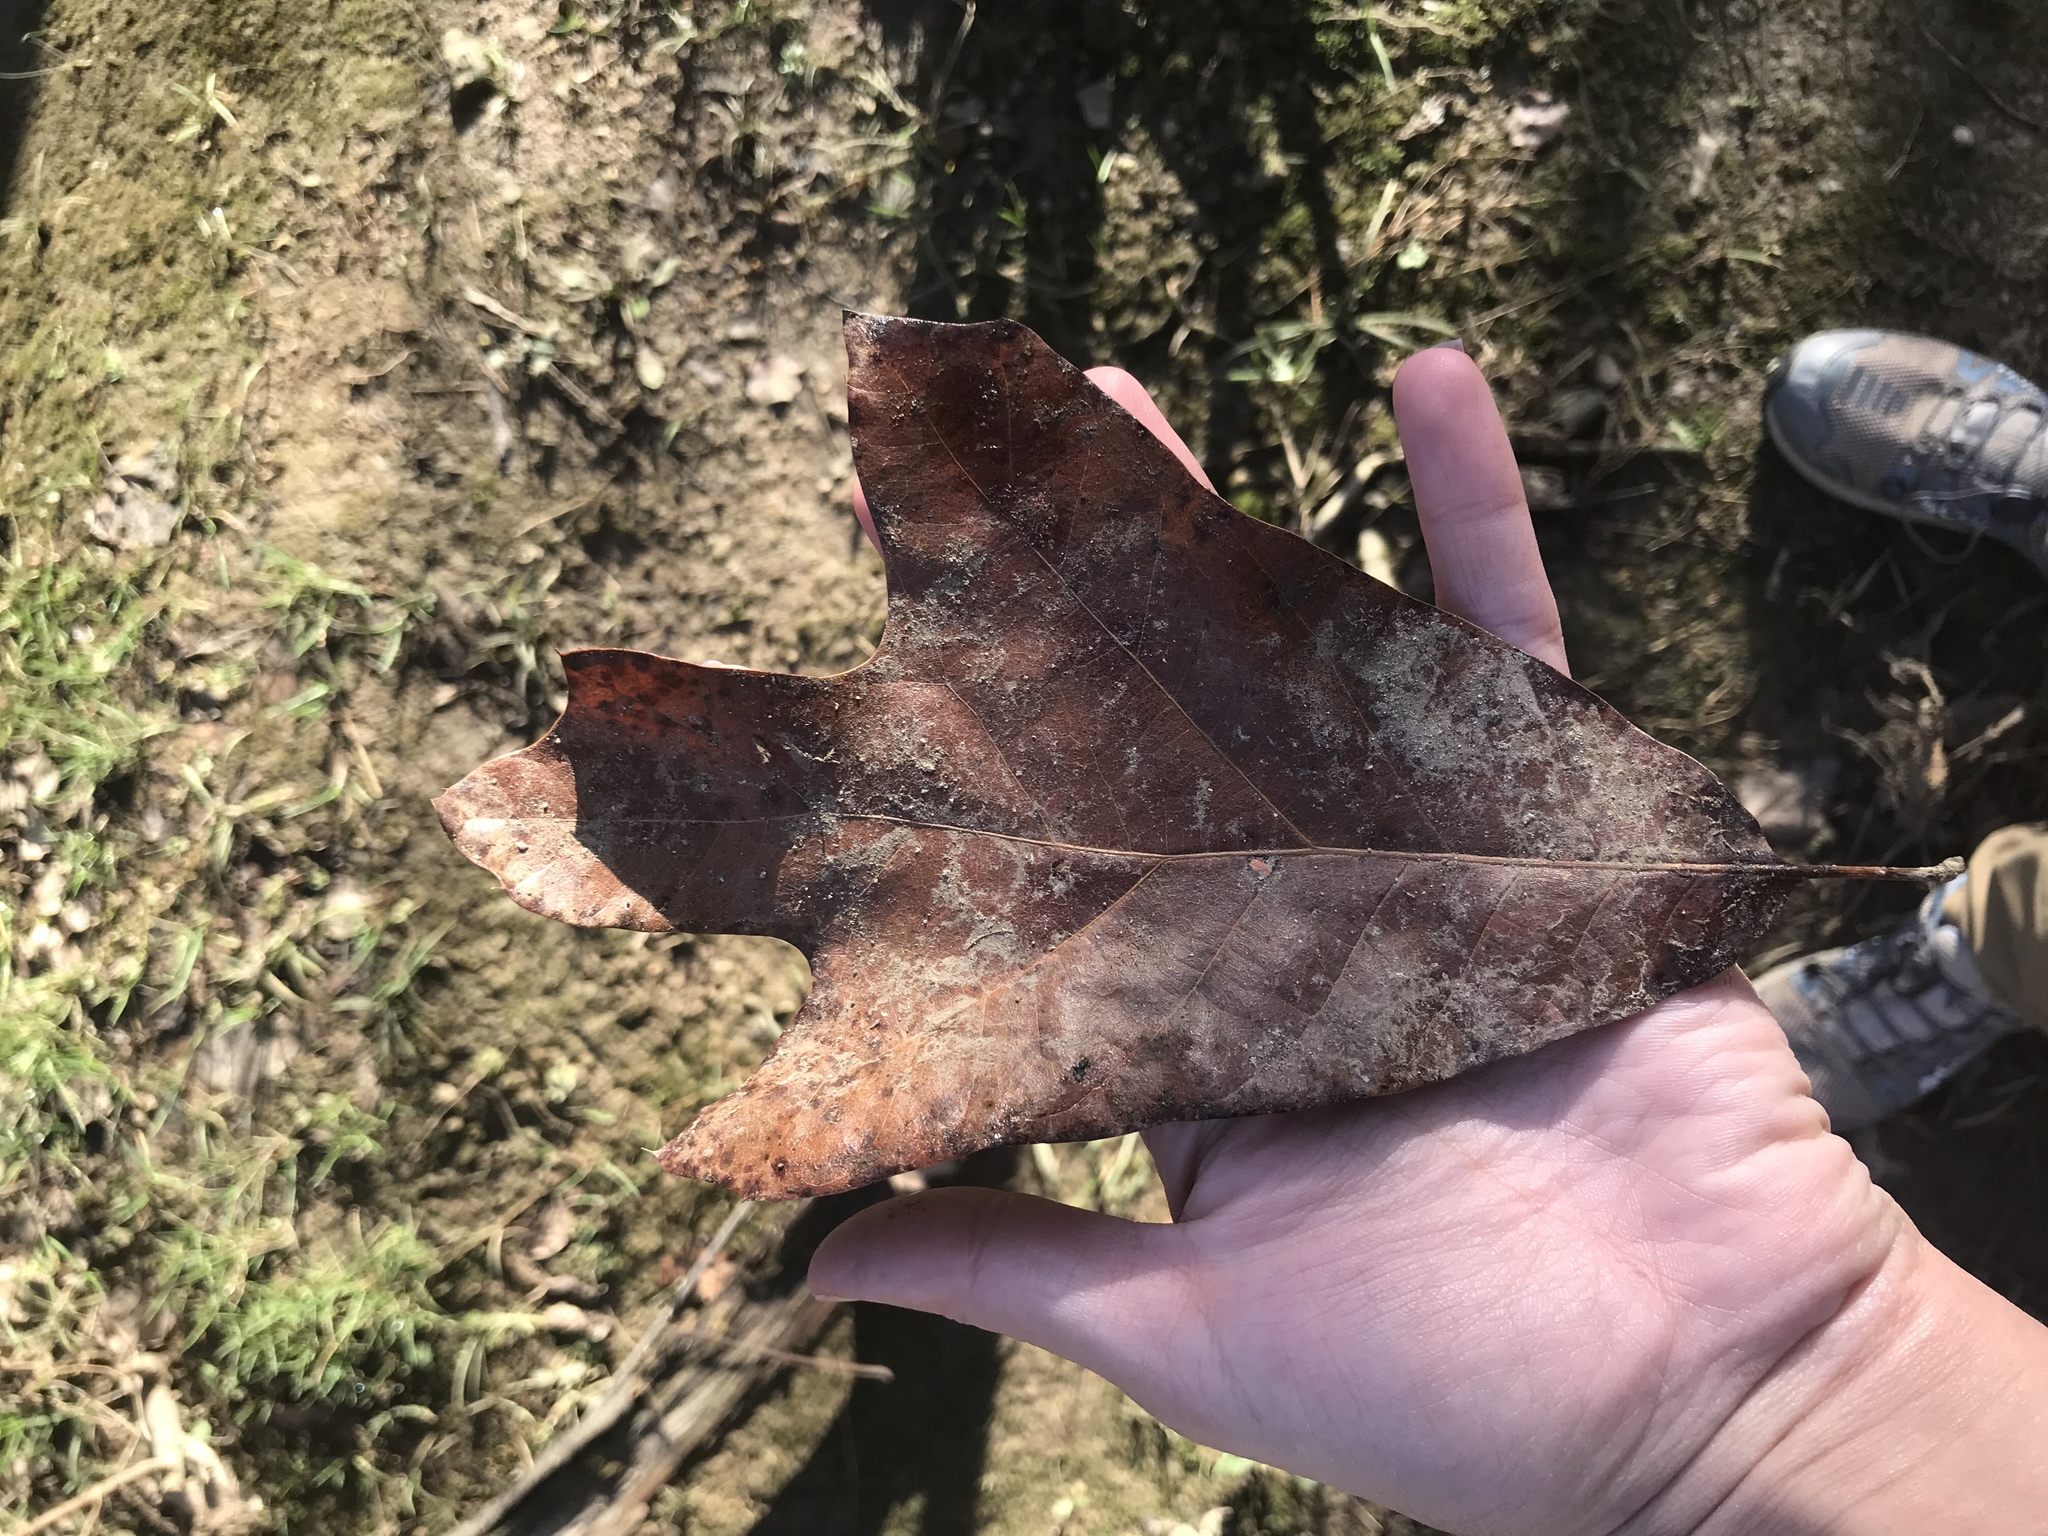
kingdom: Plantae
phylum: Tracheophyta
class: Magnoliopsida
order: Fagales
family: Fagaceae
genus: Quercus
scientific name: Quercus falcata
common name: Southern red oak
